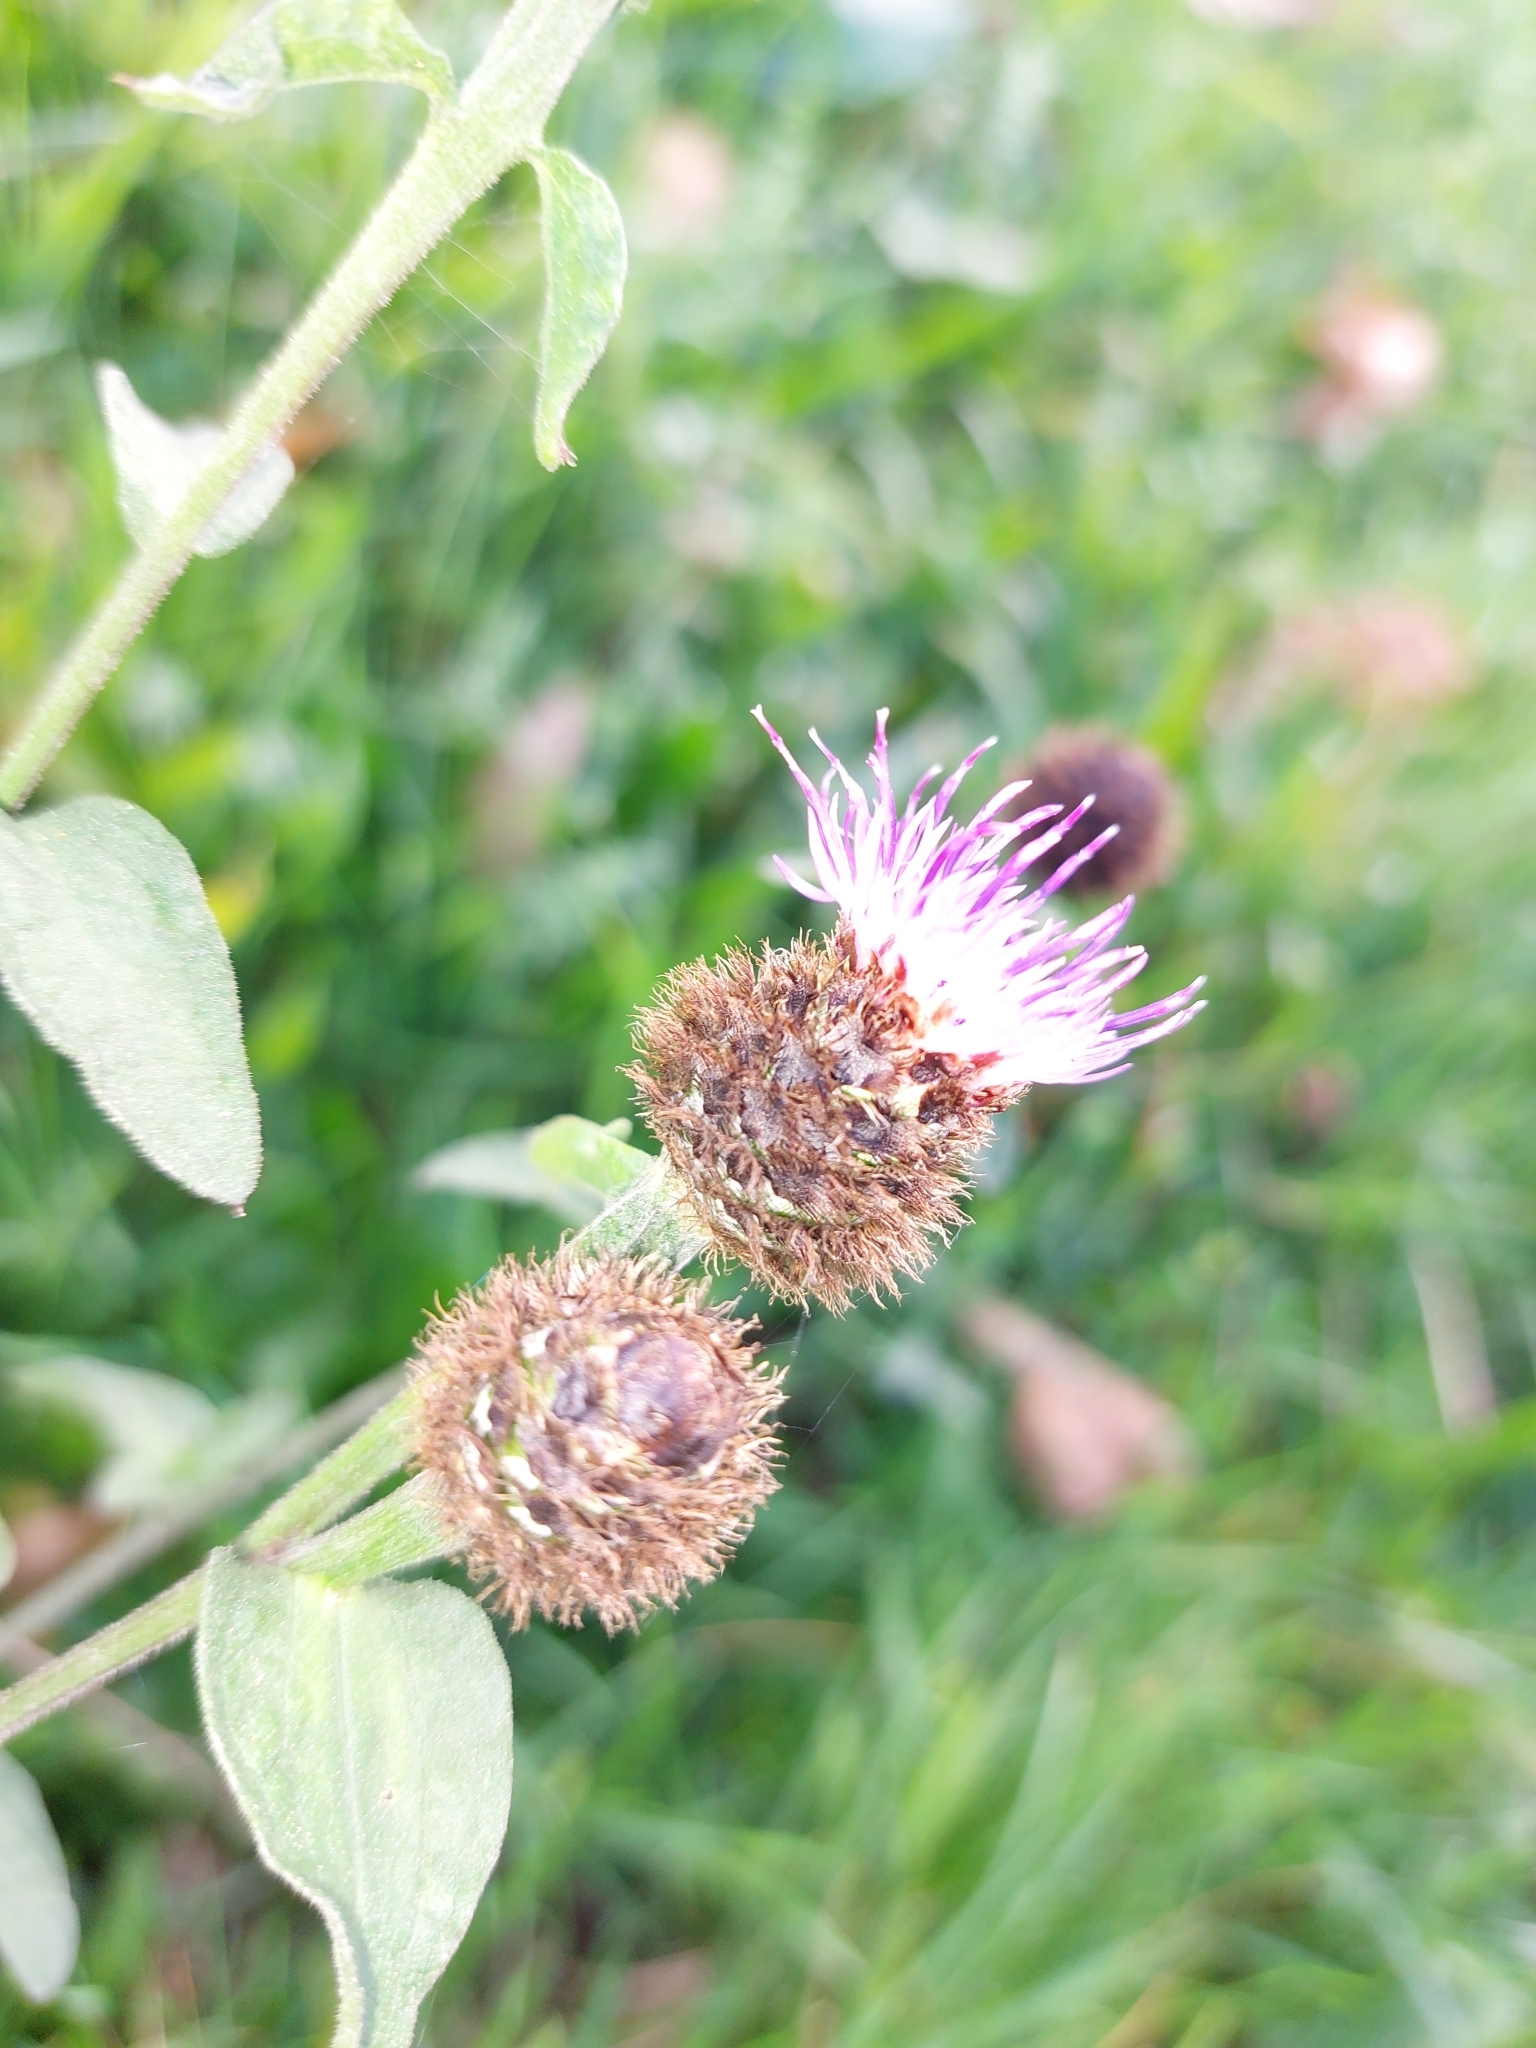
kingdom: Plantae
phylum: Tracheophyta
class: Magnoliopsida
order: Asterales
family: Asteraceae
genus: Centaurea
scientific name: Centaurea nigra
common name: Lesser knapweed
